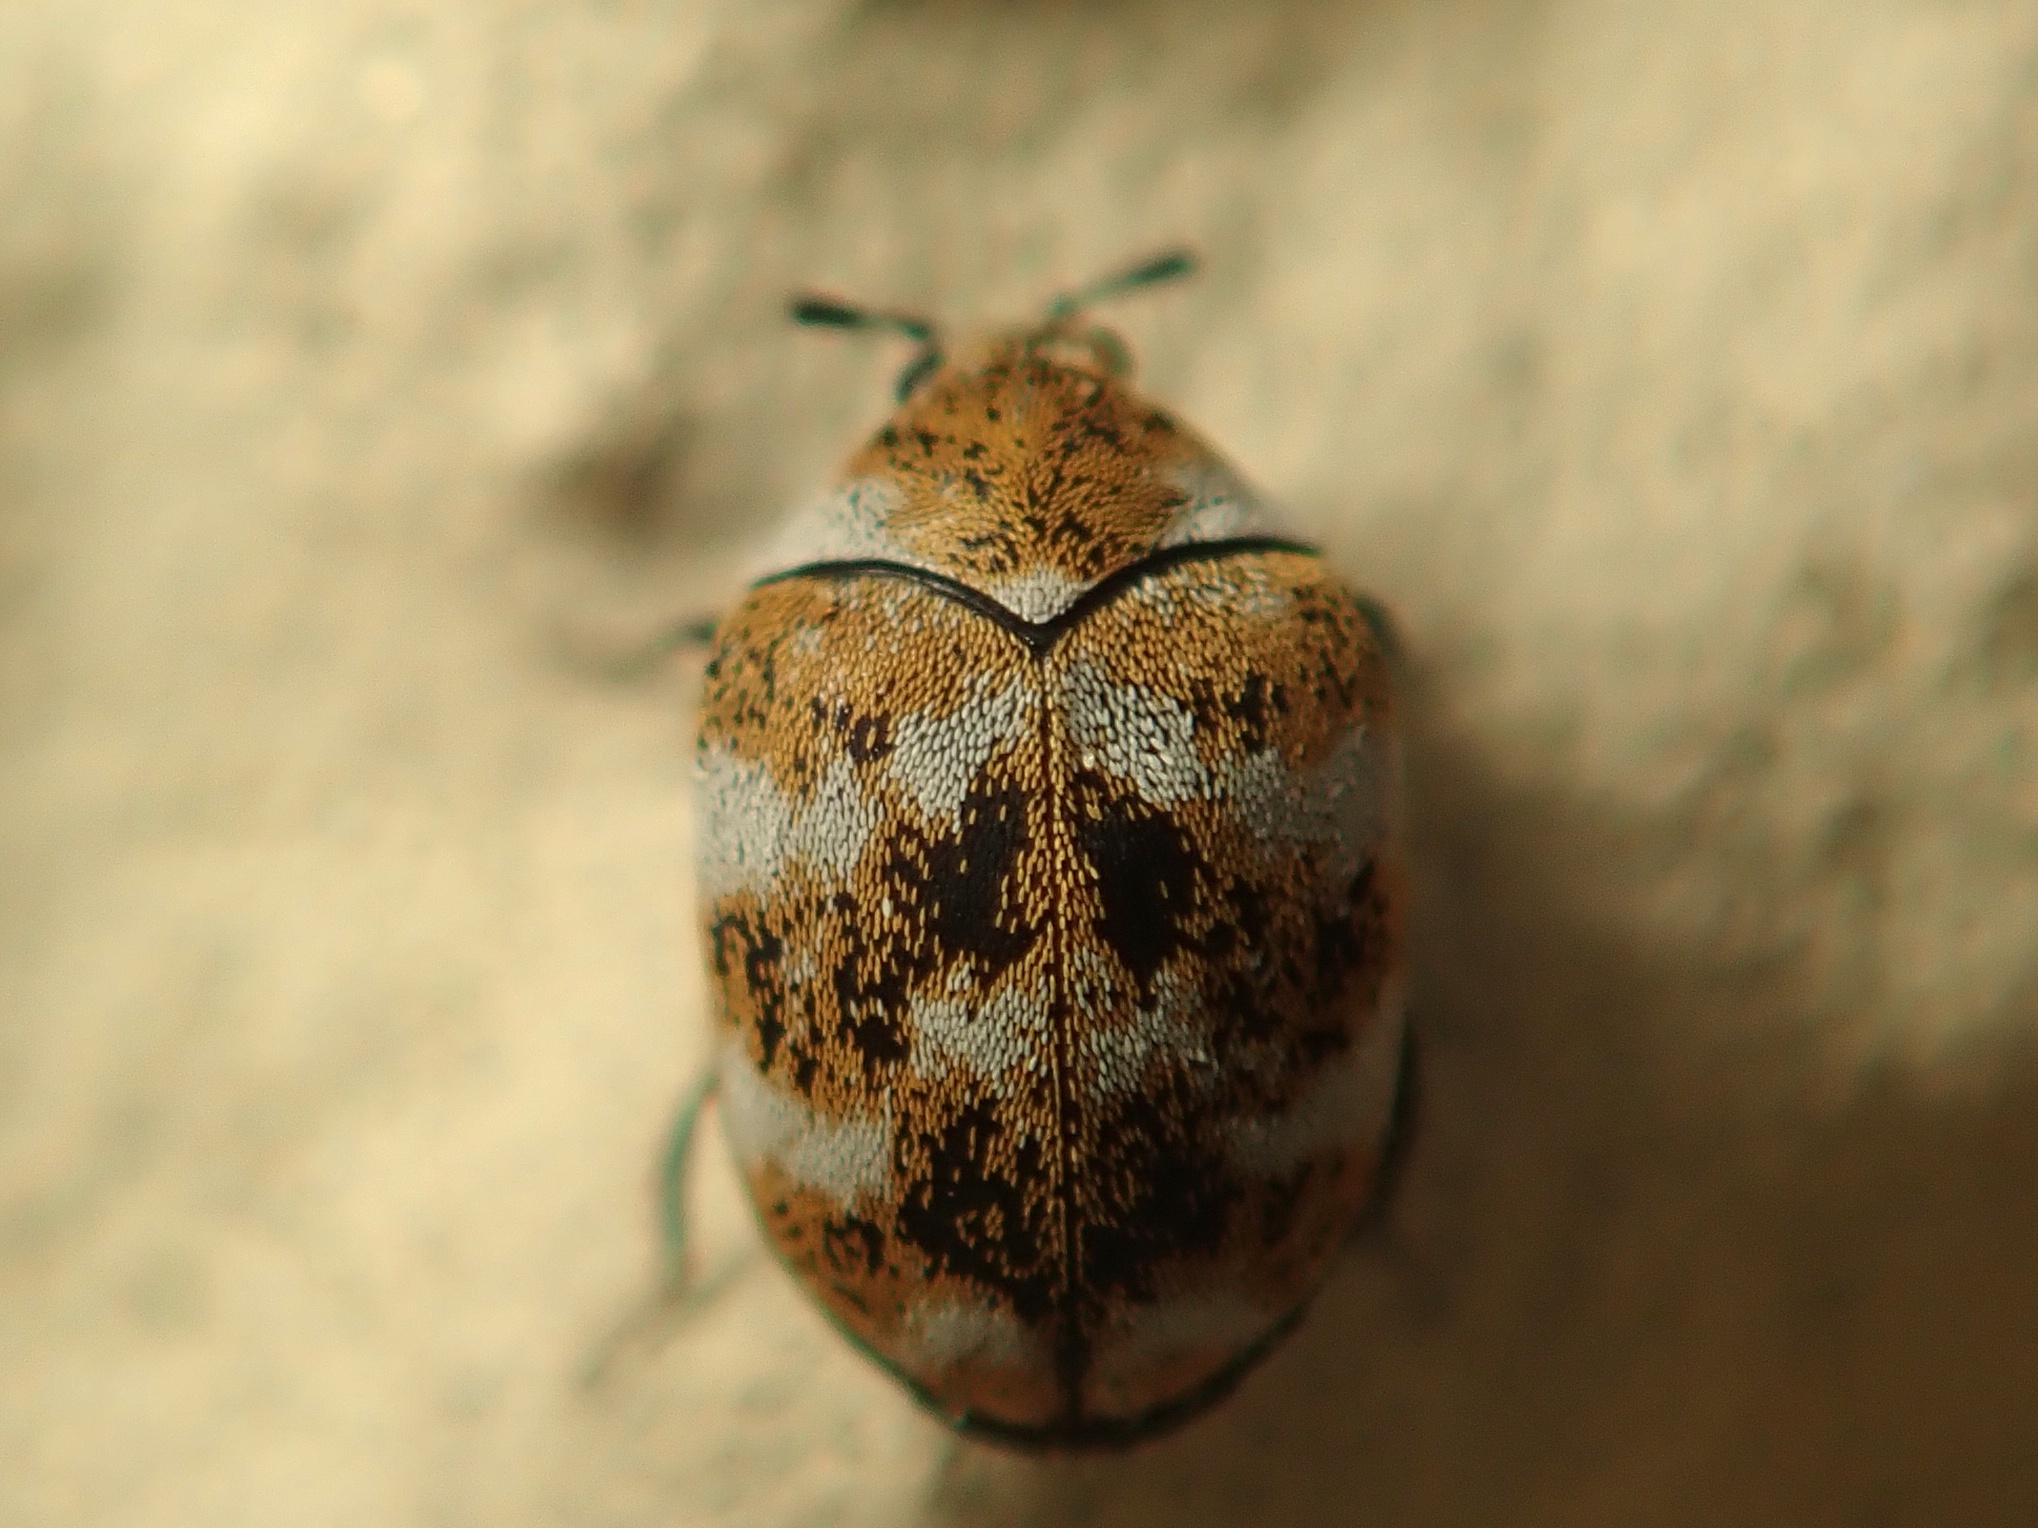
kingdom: Animalia
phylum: Arthropoda
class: Insecta
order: Coleoptera
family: Dermestidae
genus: Anthrenus
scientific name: Anthrenus verbasci
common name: Varied carpet beetle
